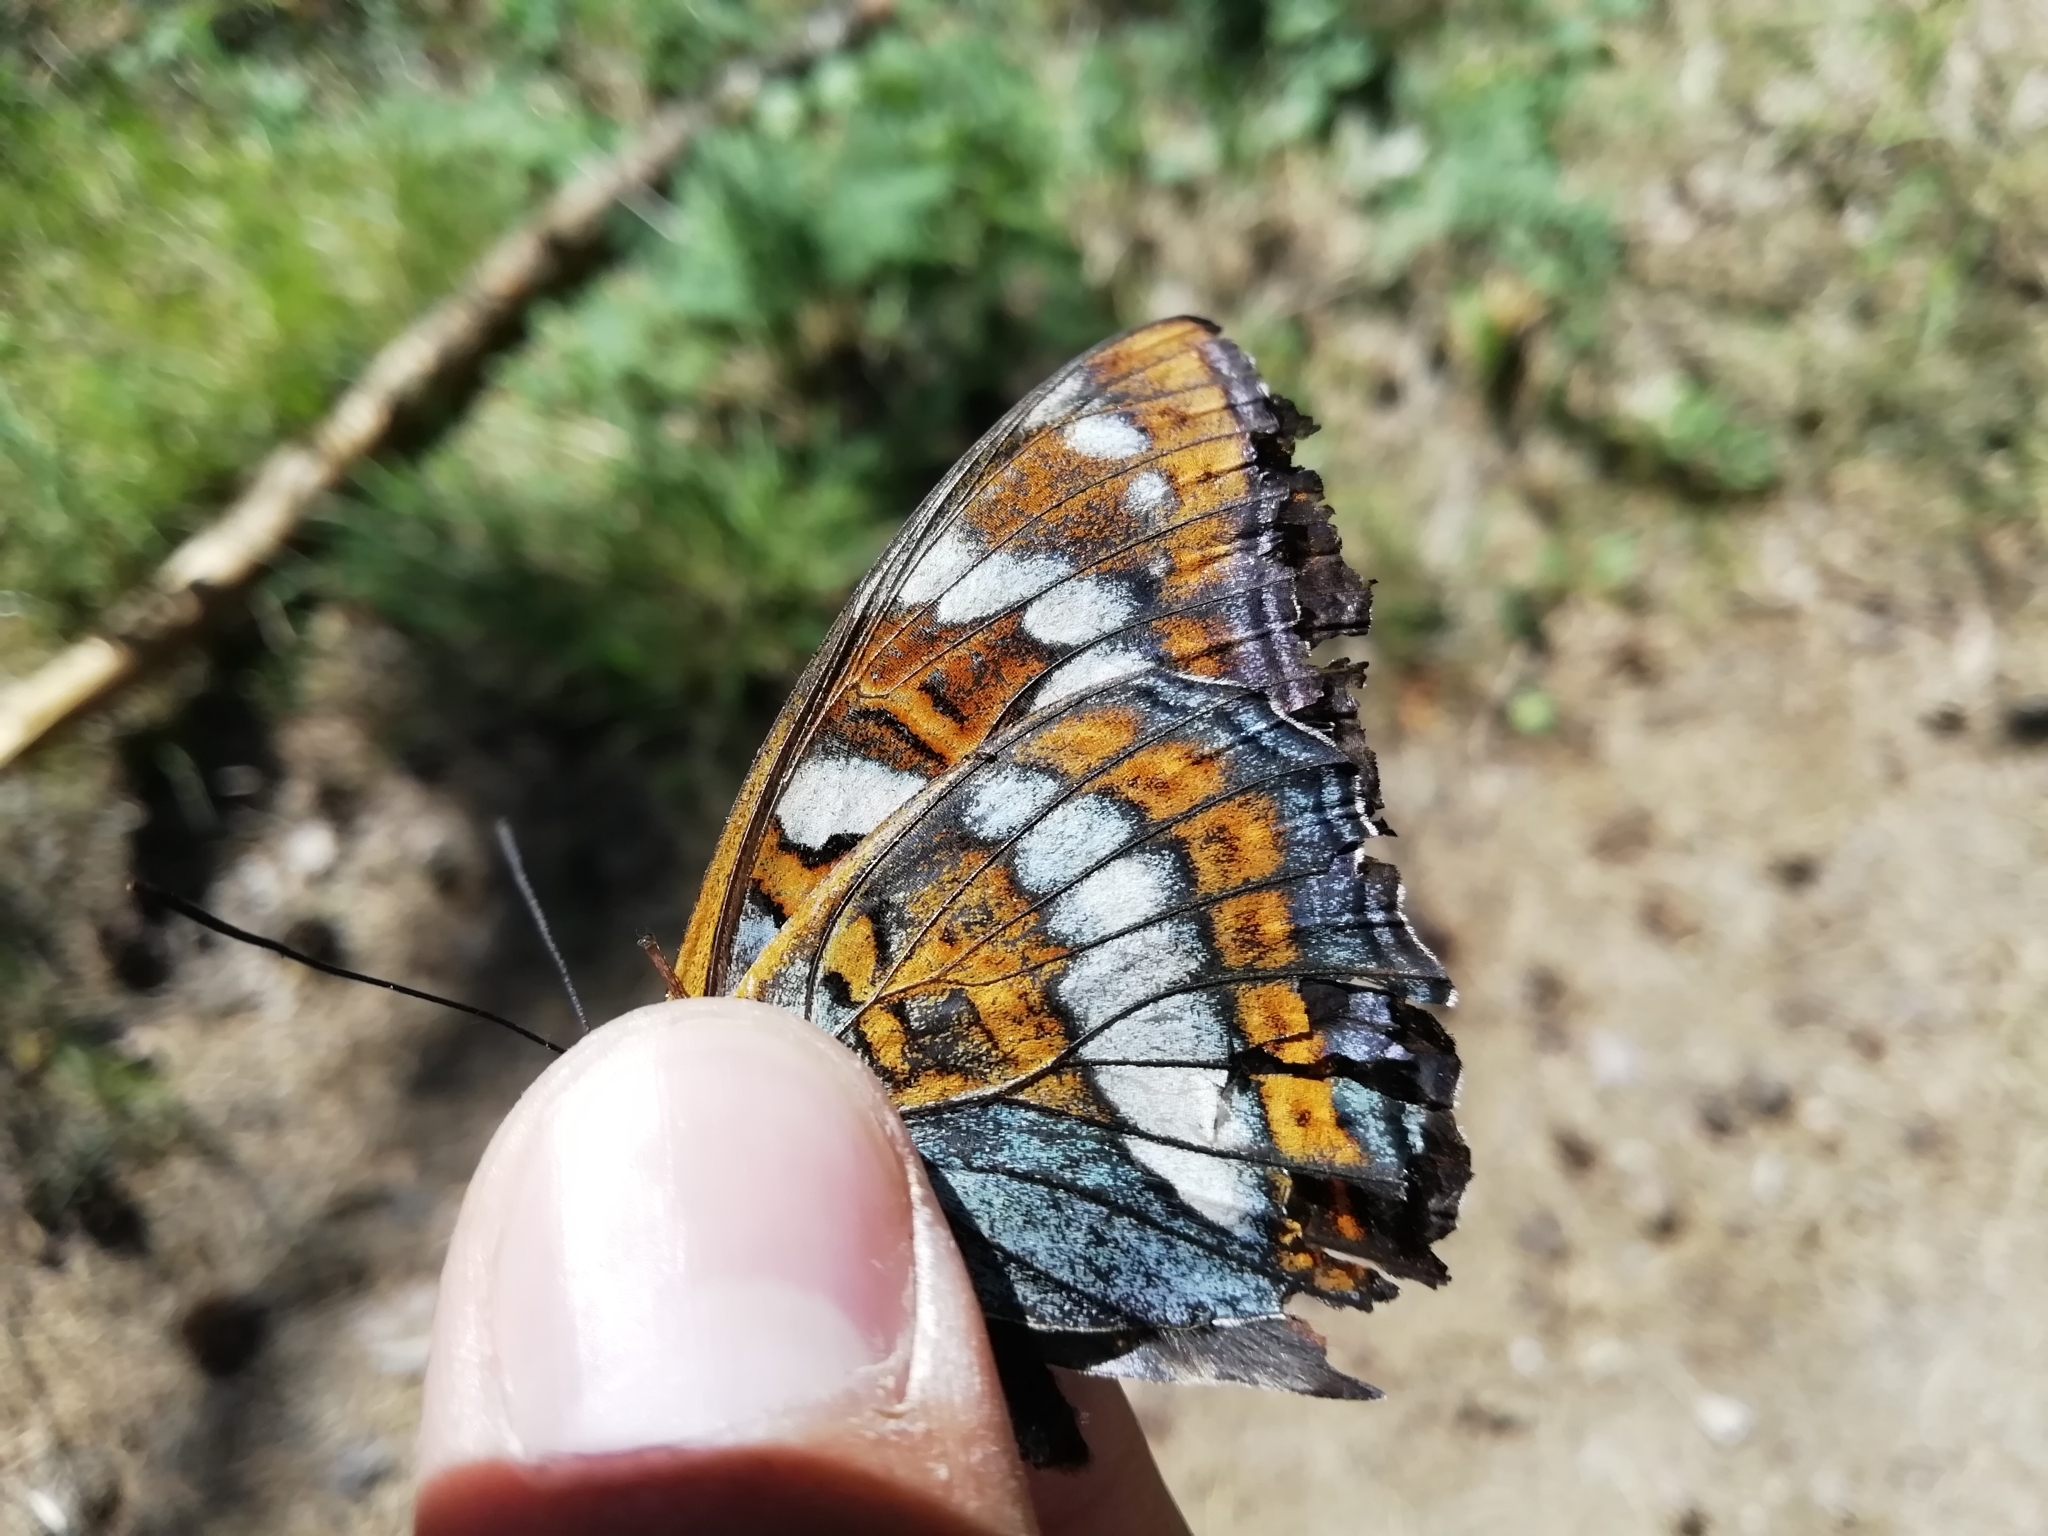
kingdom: Animalia
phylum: Arthropoda
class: Insecta
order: Lepidoptera
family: Nymphalidae
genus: Limenitis
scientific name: Limenitis populi
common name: Poplar admiral
